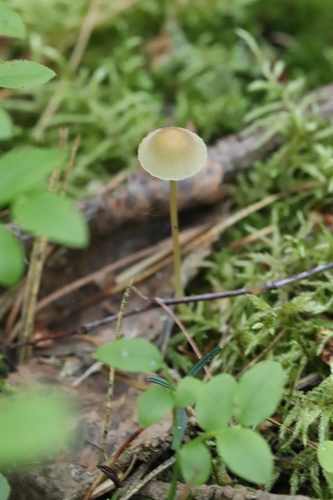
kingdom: Fungi
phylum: Basidiomycota
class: Agaricomycetes
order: Agaricales
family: Mycenaceae
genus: Mycena
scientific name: Mycena epipterygia
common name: Yellowleg bonnet
